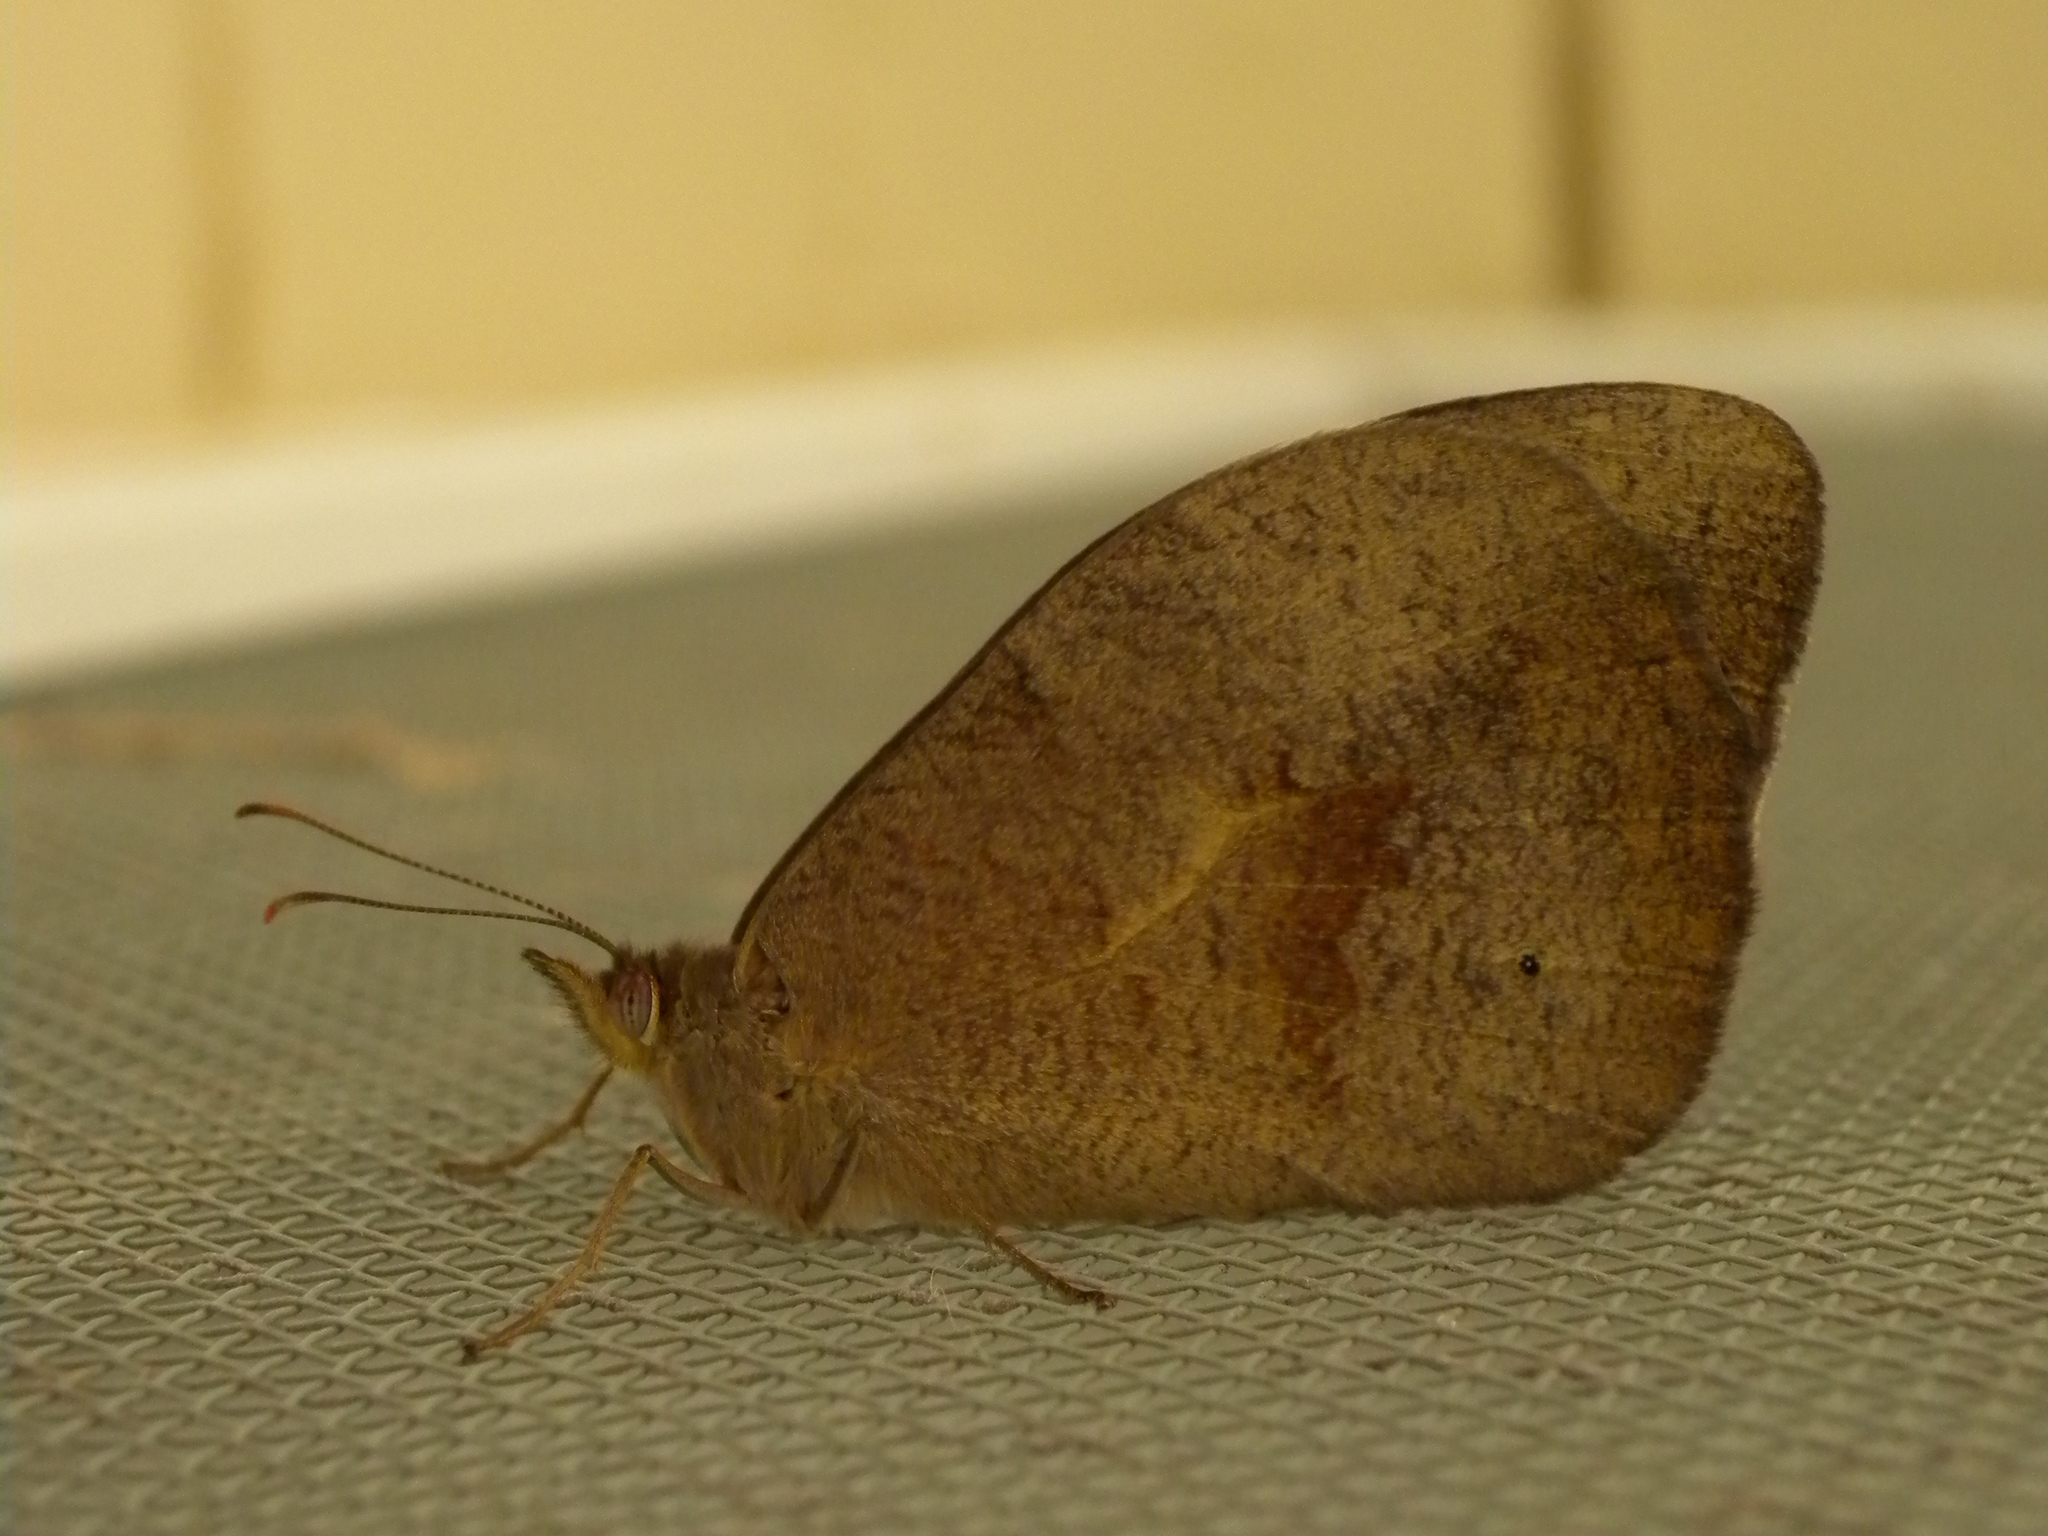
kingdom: Animalia
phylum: Arthropoda
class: Insecta
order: Lepidoptera
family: Nymphalidae
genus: Heteronympha
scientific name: Heteronympha merope
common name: Common brown
